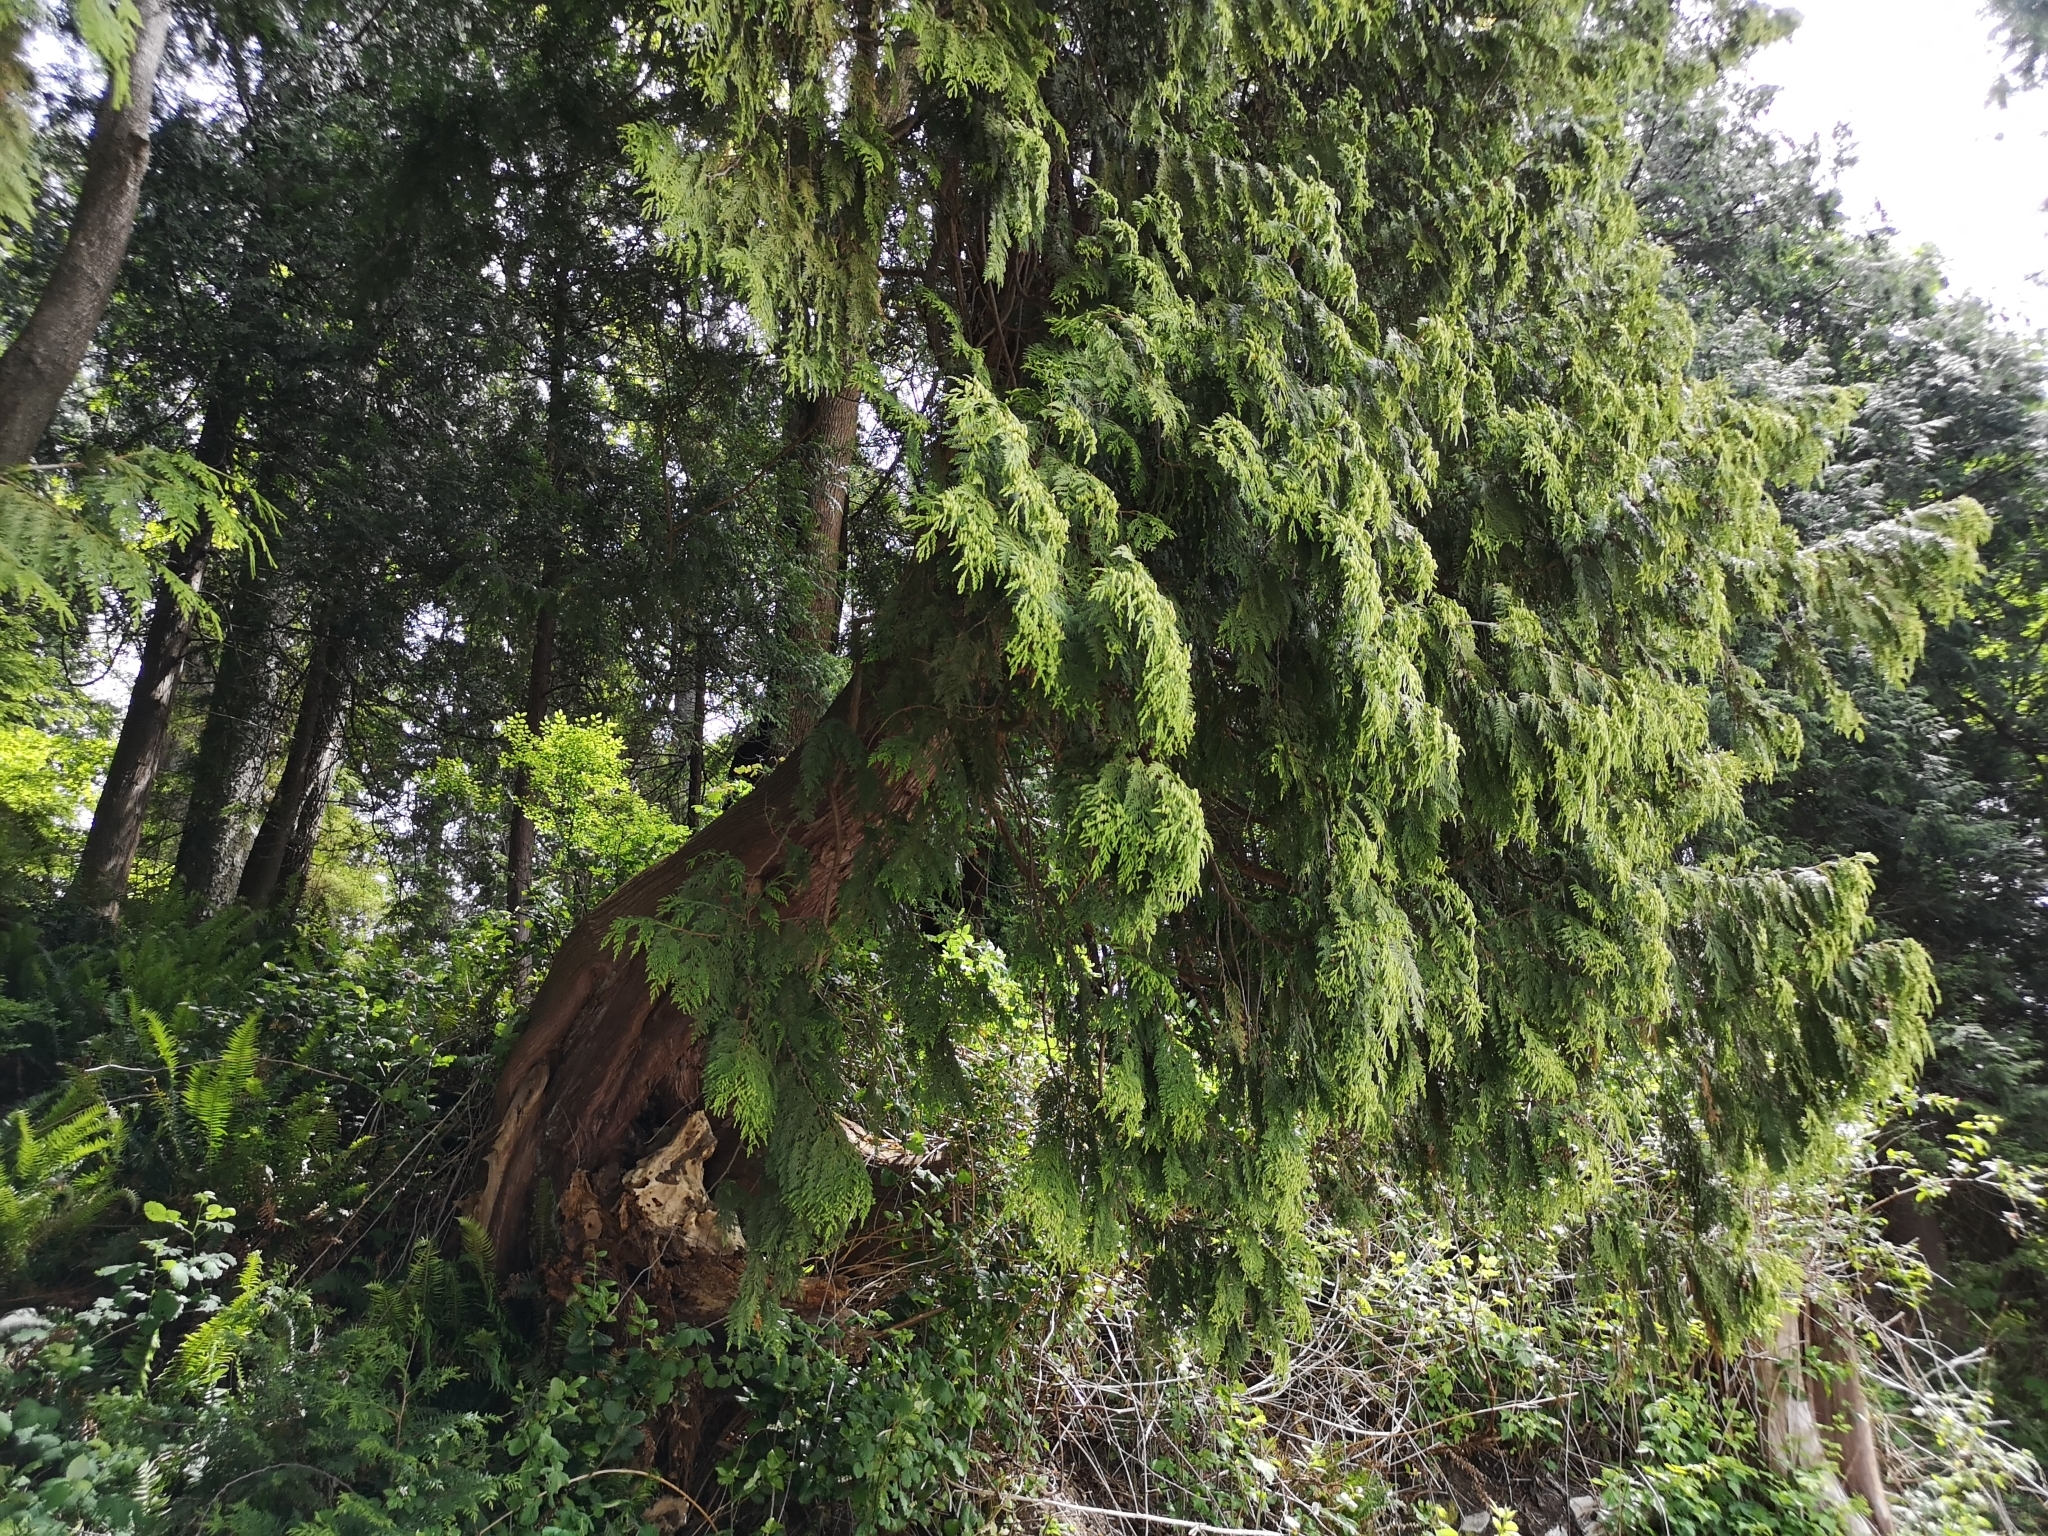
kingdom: Plantae
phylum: Tracheophyta
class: Pinopsida
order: Pinales
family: Cupressaceae
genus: Thuja
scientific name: Thuja plicata
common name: Western red-cedar
